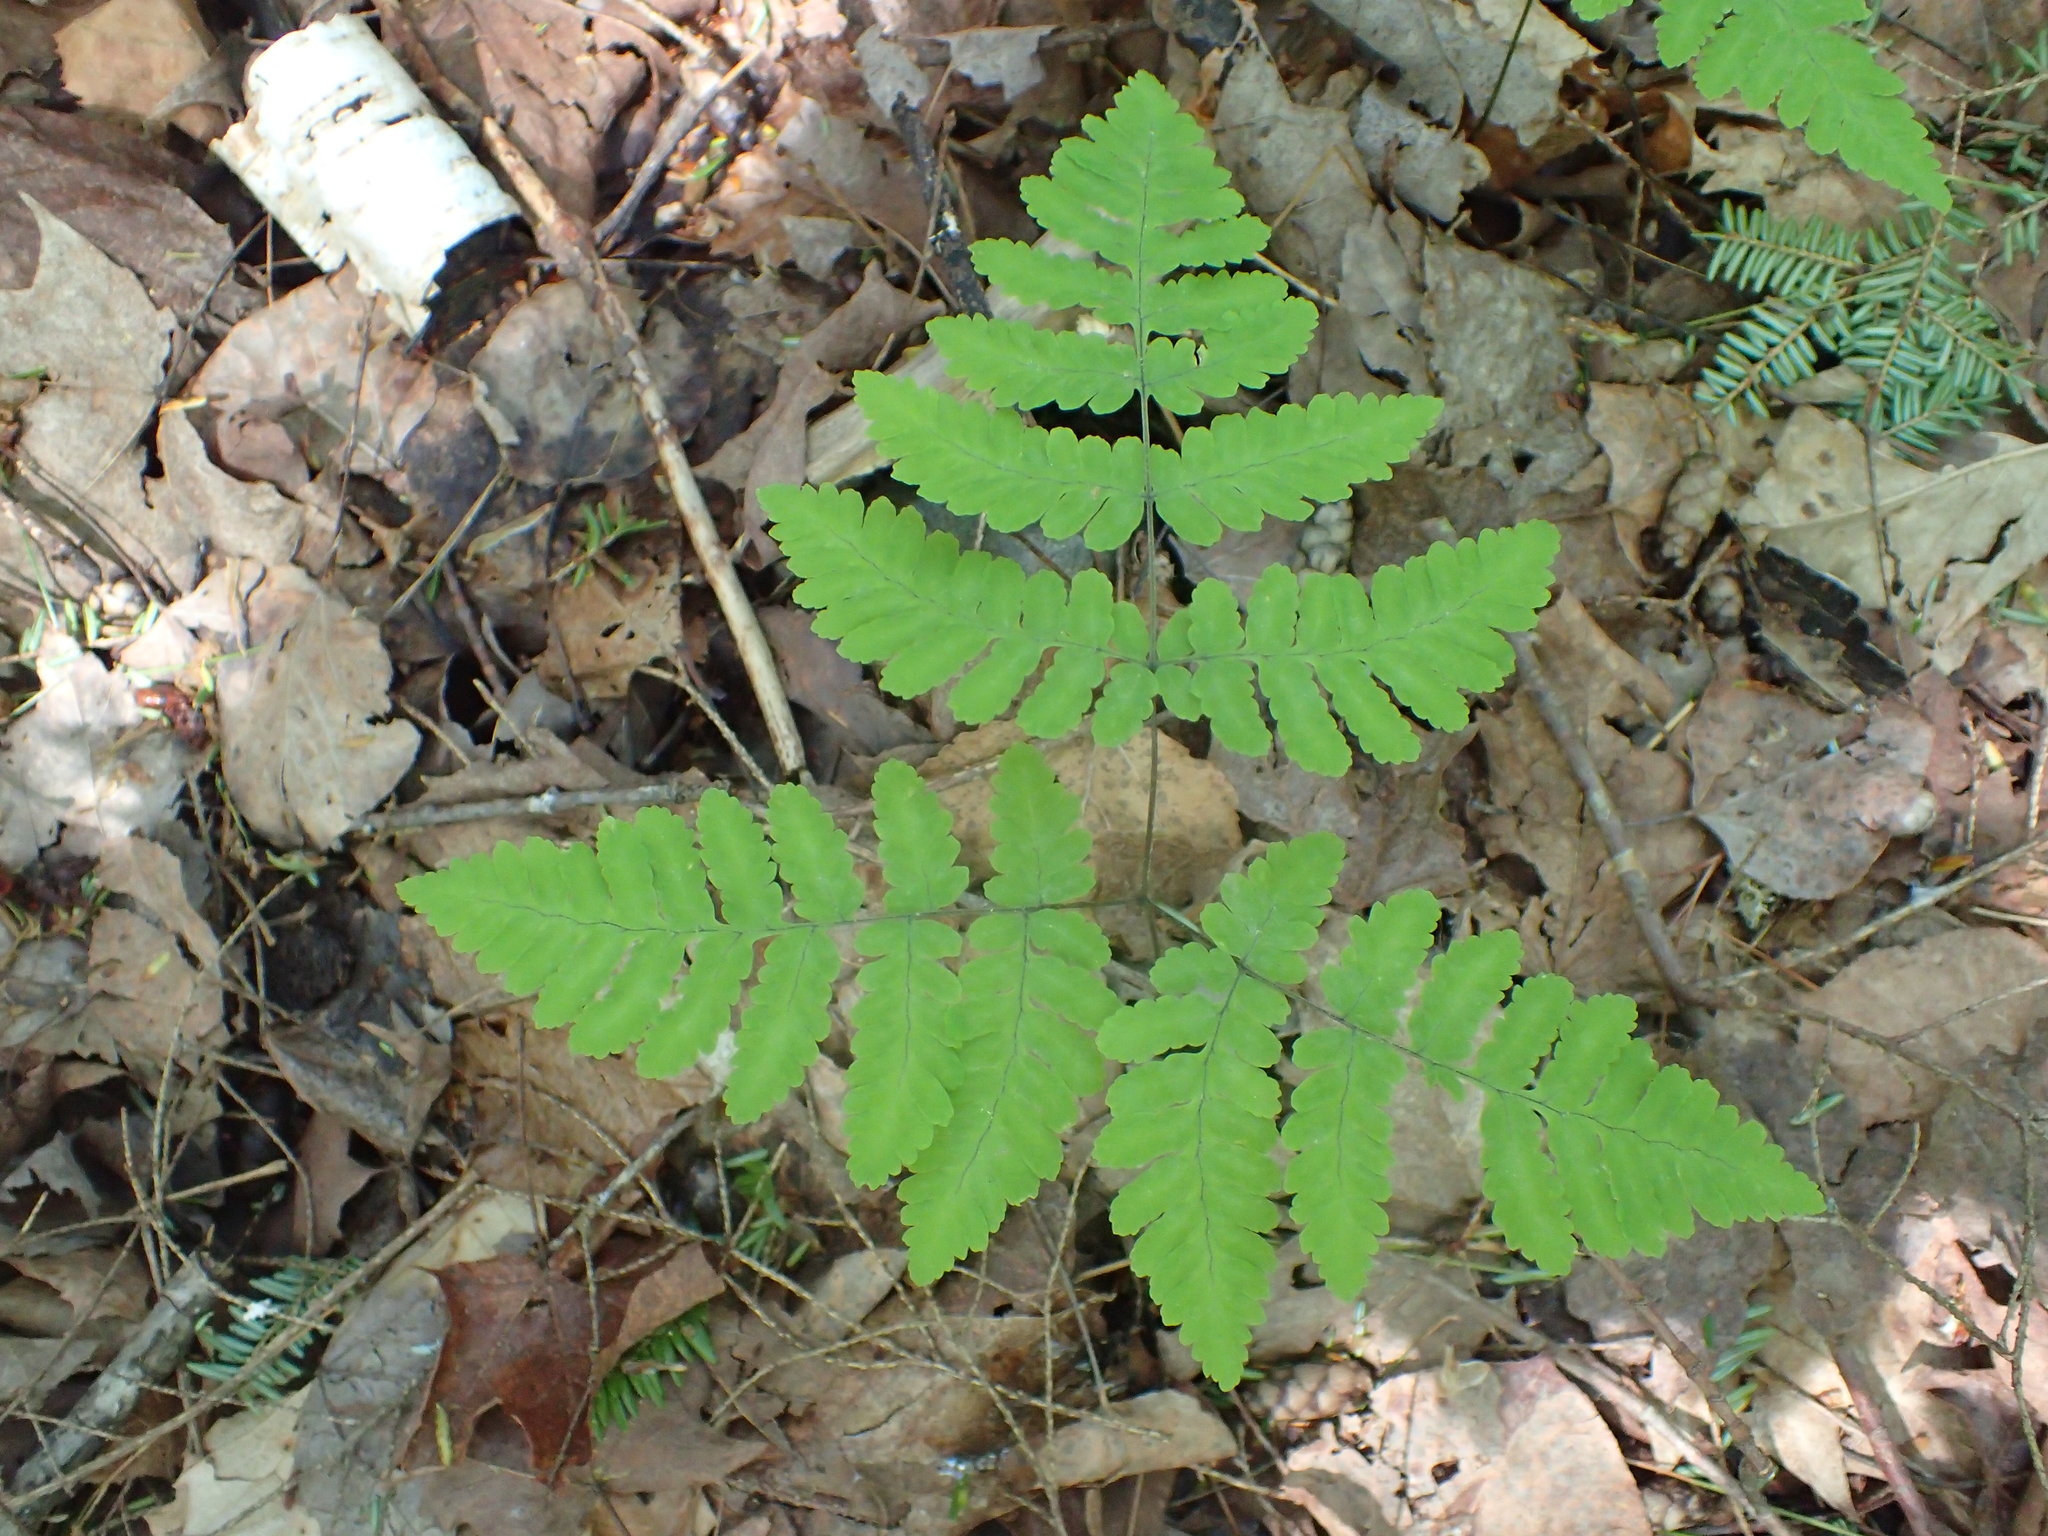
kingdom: Plantae
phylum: Tracheophyta
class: Polypodiopsida
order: Polypodiales
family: Cystopteridaceae
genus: Gymnocarpium
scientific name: Gymnocarpium dryopteris
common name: Oak fern
